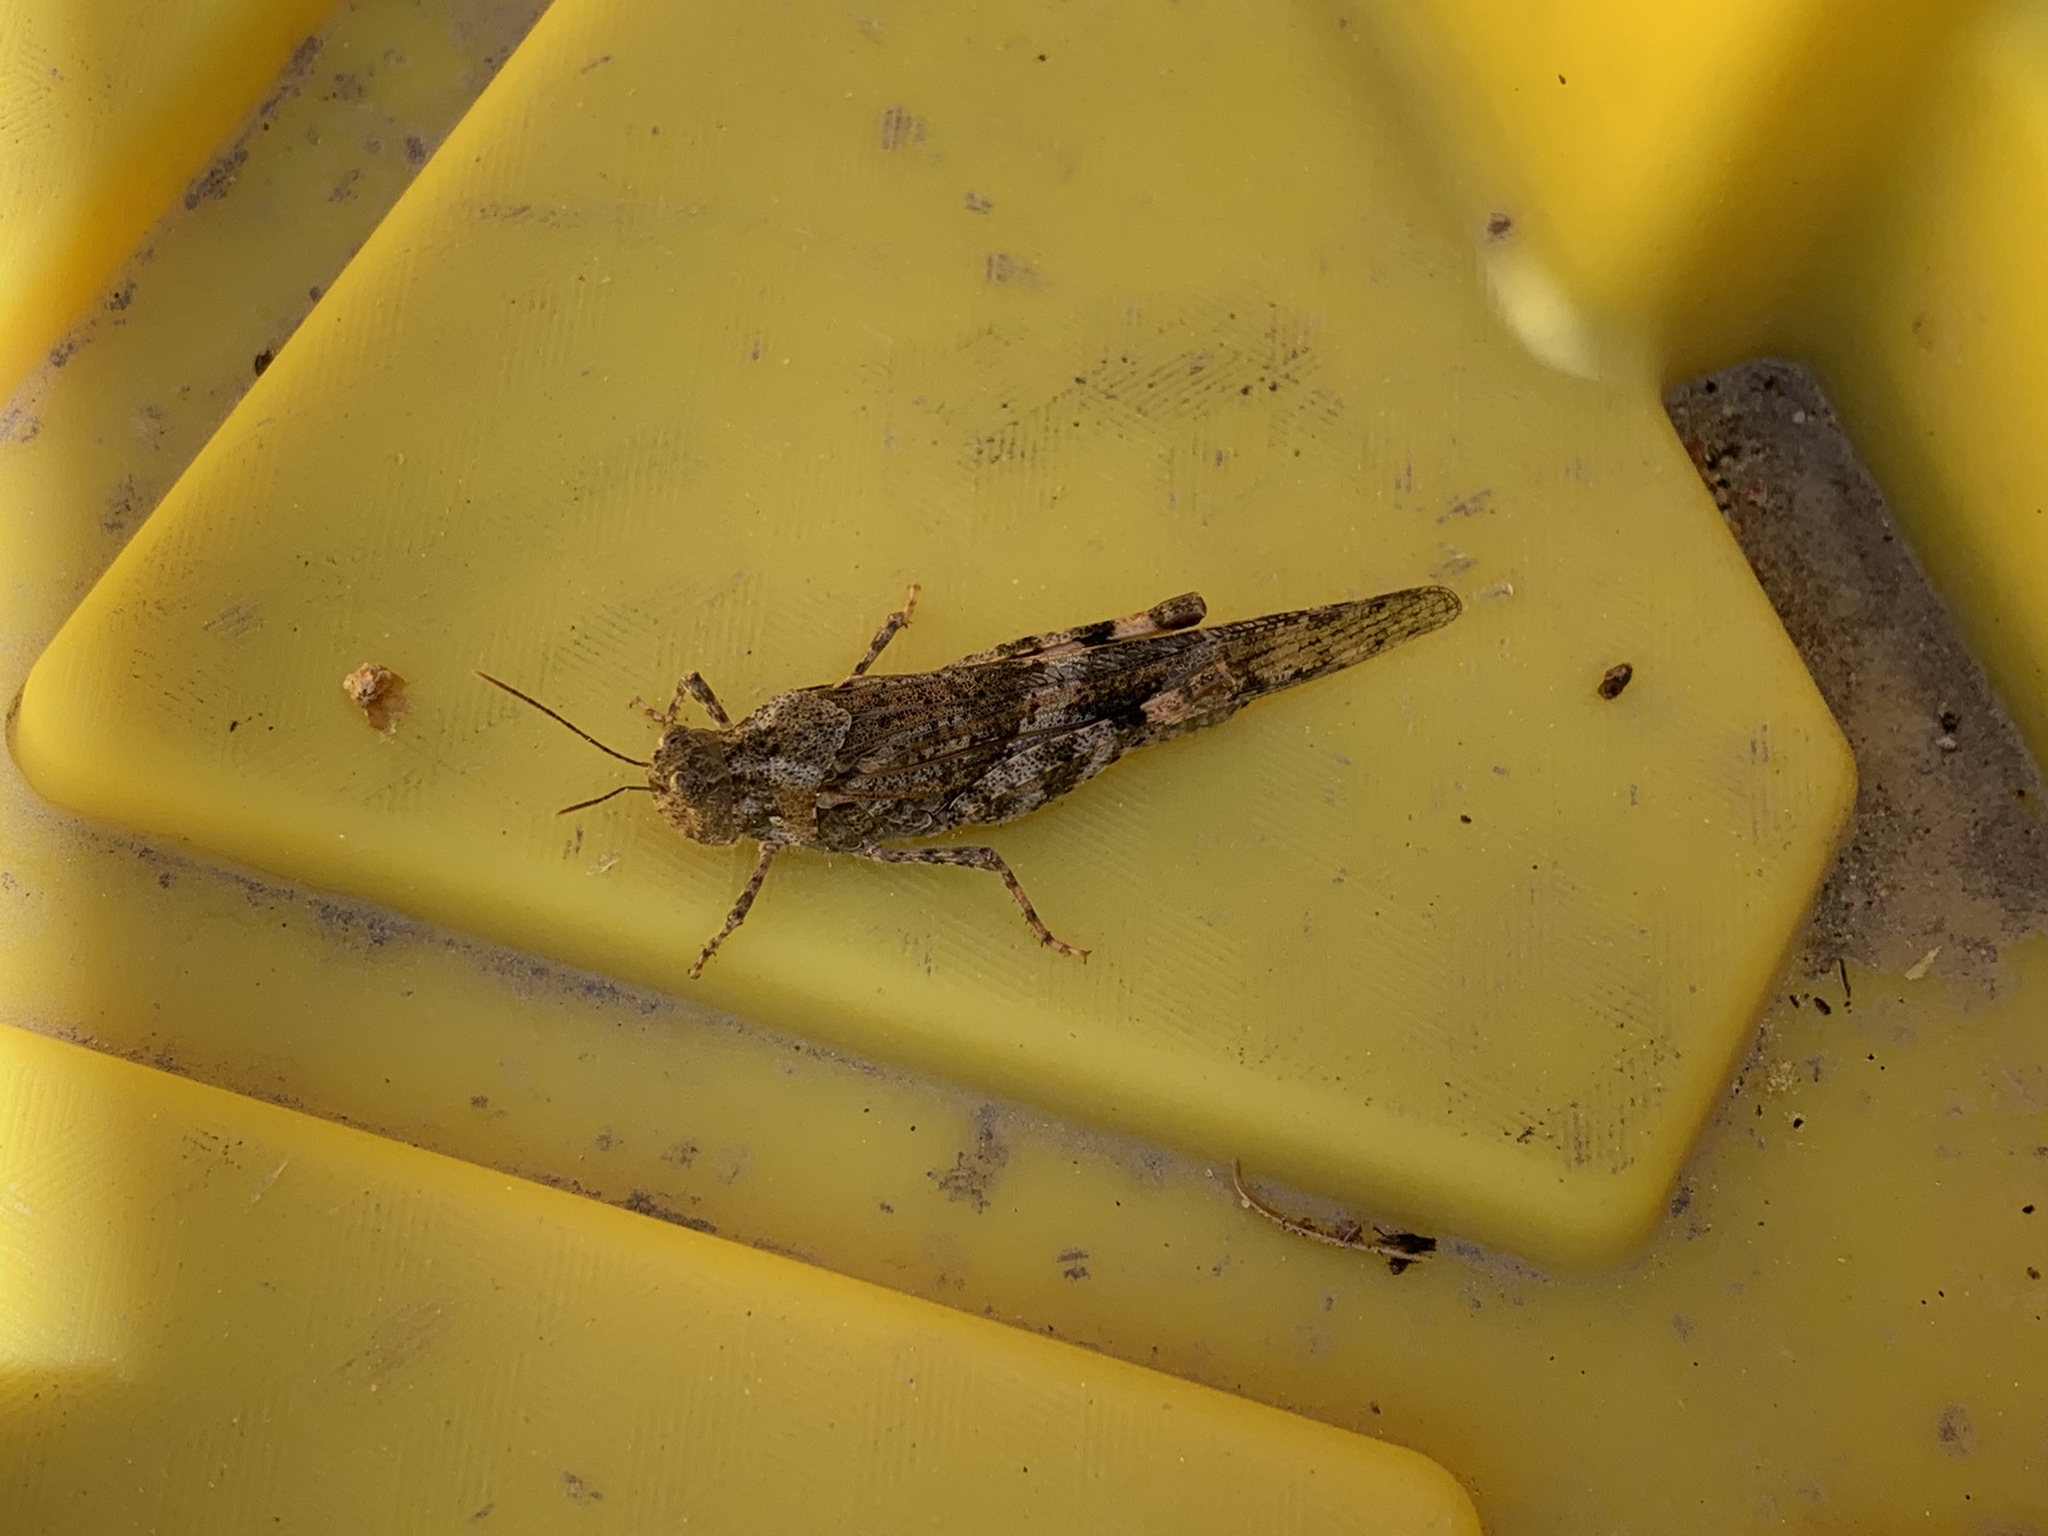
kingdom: Animalia
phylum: Arthropoda
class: Insecta
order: Orthoptera
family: Acrididae
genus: Trimerotropis
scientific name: Trimerotropis pallidipennis
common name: Pallid-winged grasshopper
